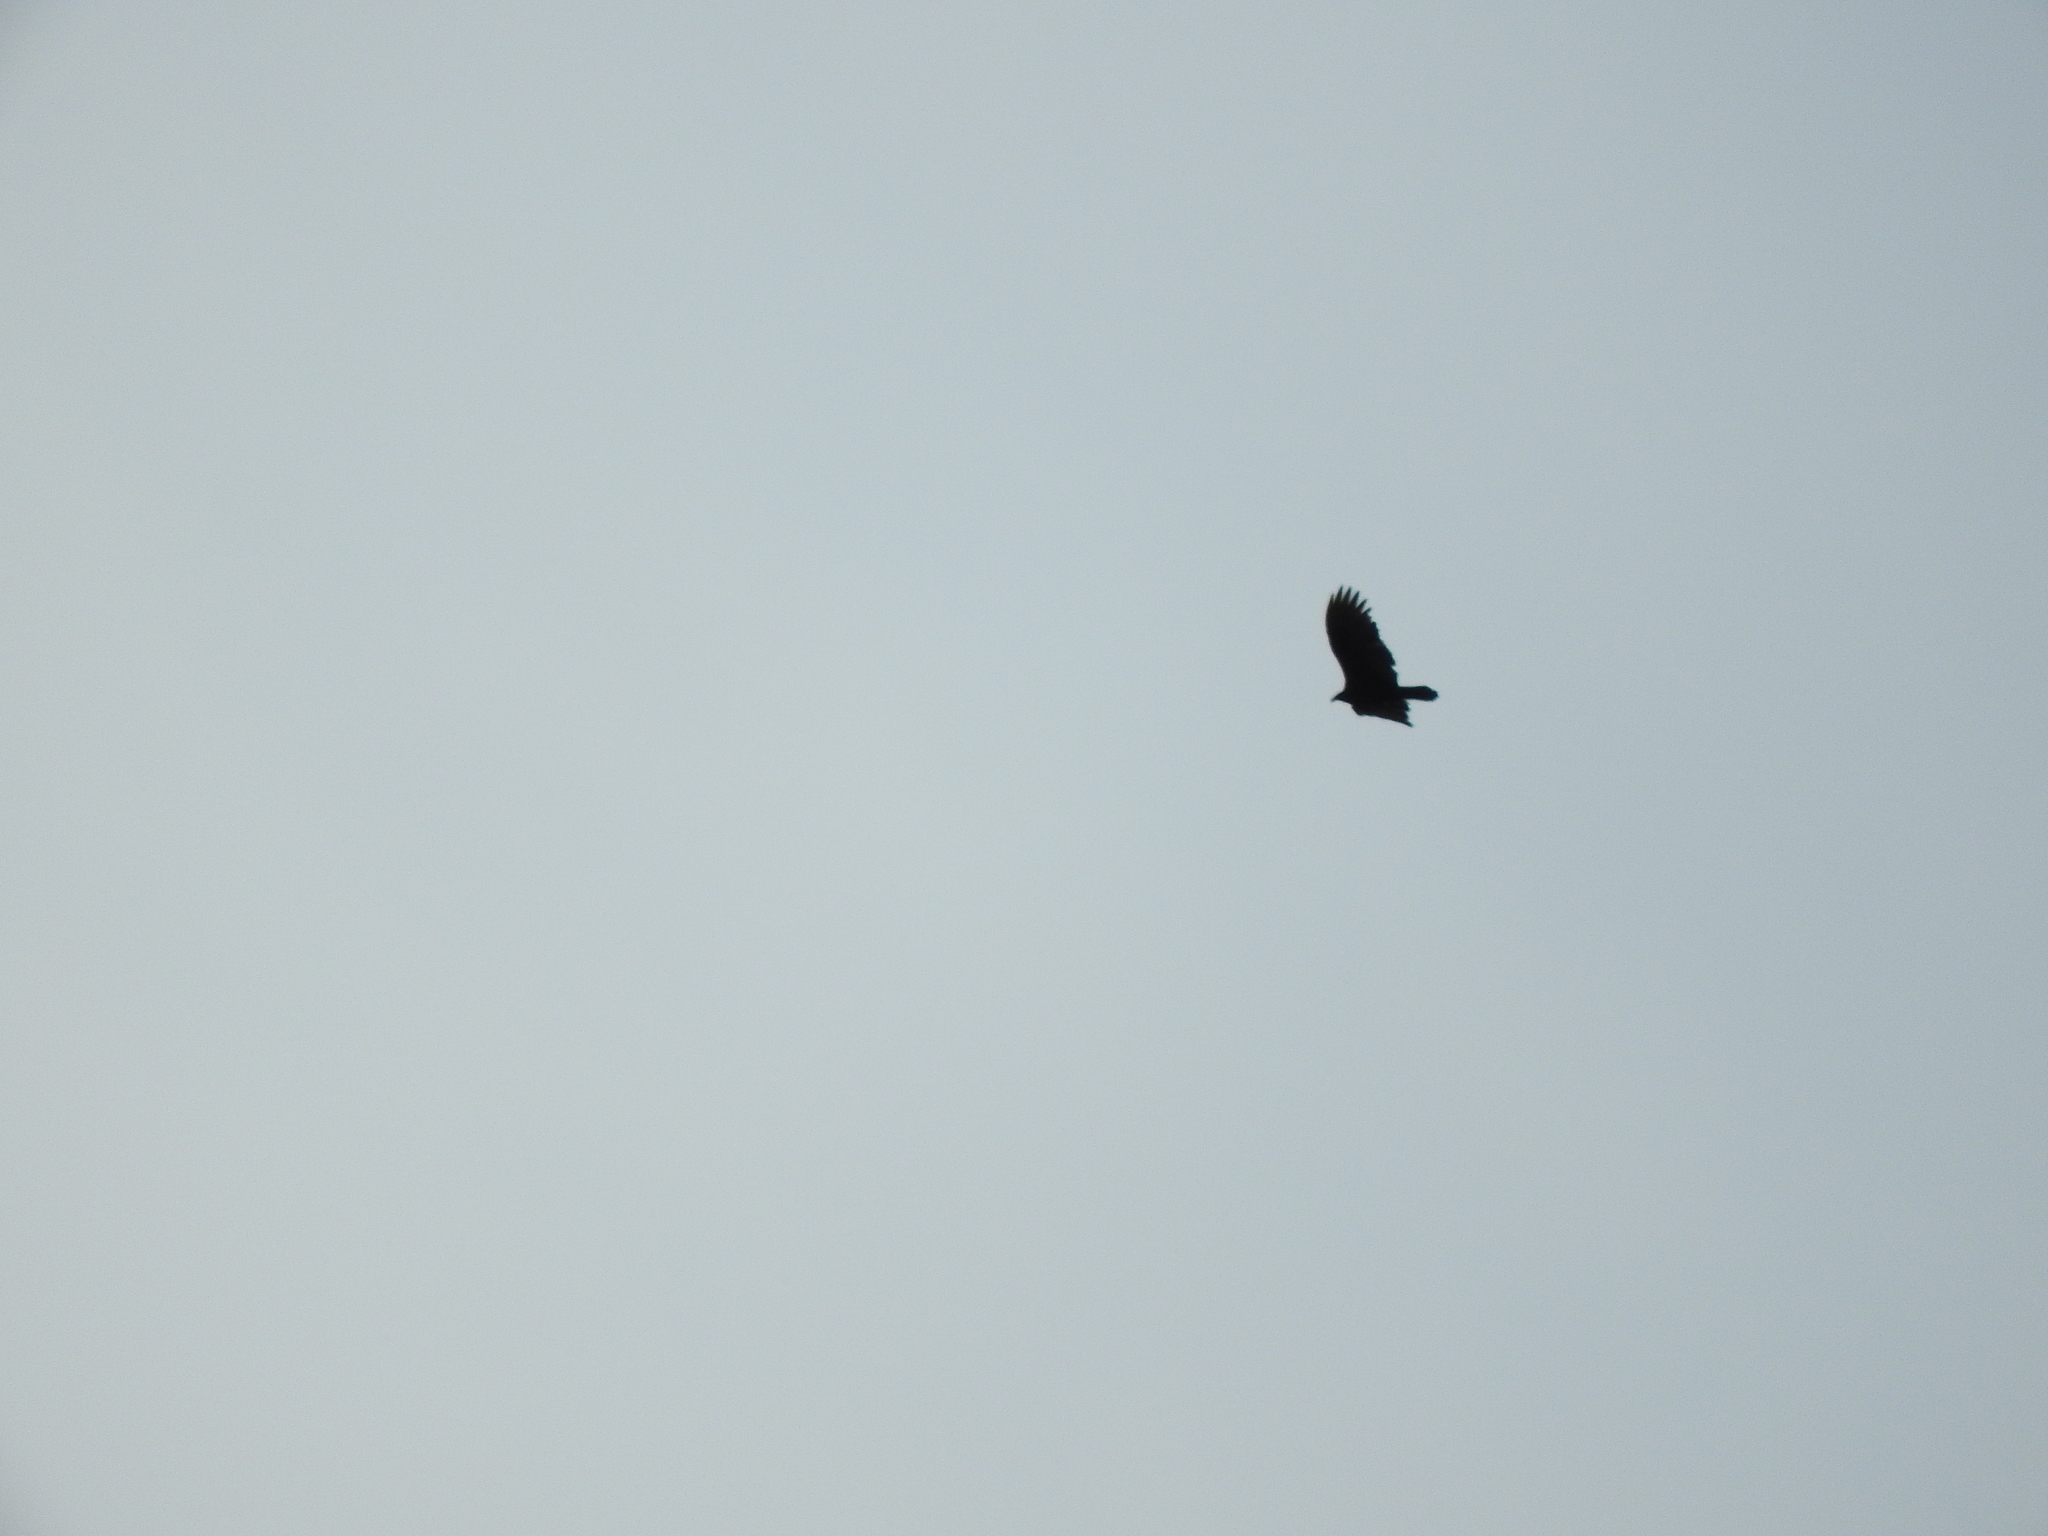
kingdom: Animalia
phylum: Chordata
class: Aves
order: Accipitriformes
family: Cathartidae
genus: Cathartes
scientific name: Cathartes aura
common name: Turkey vulture
